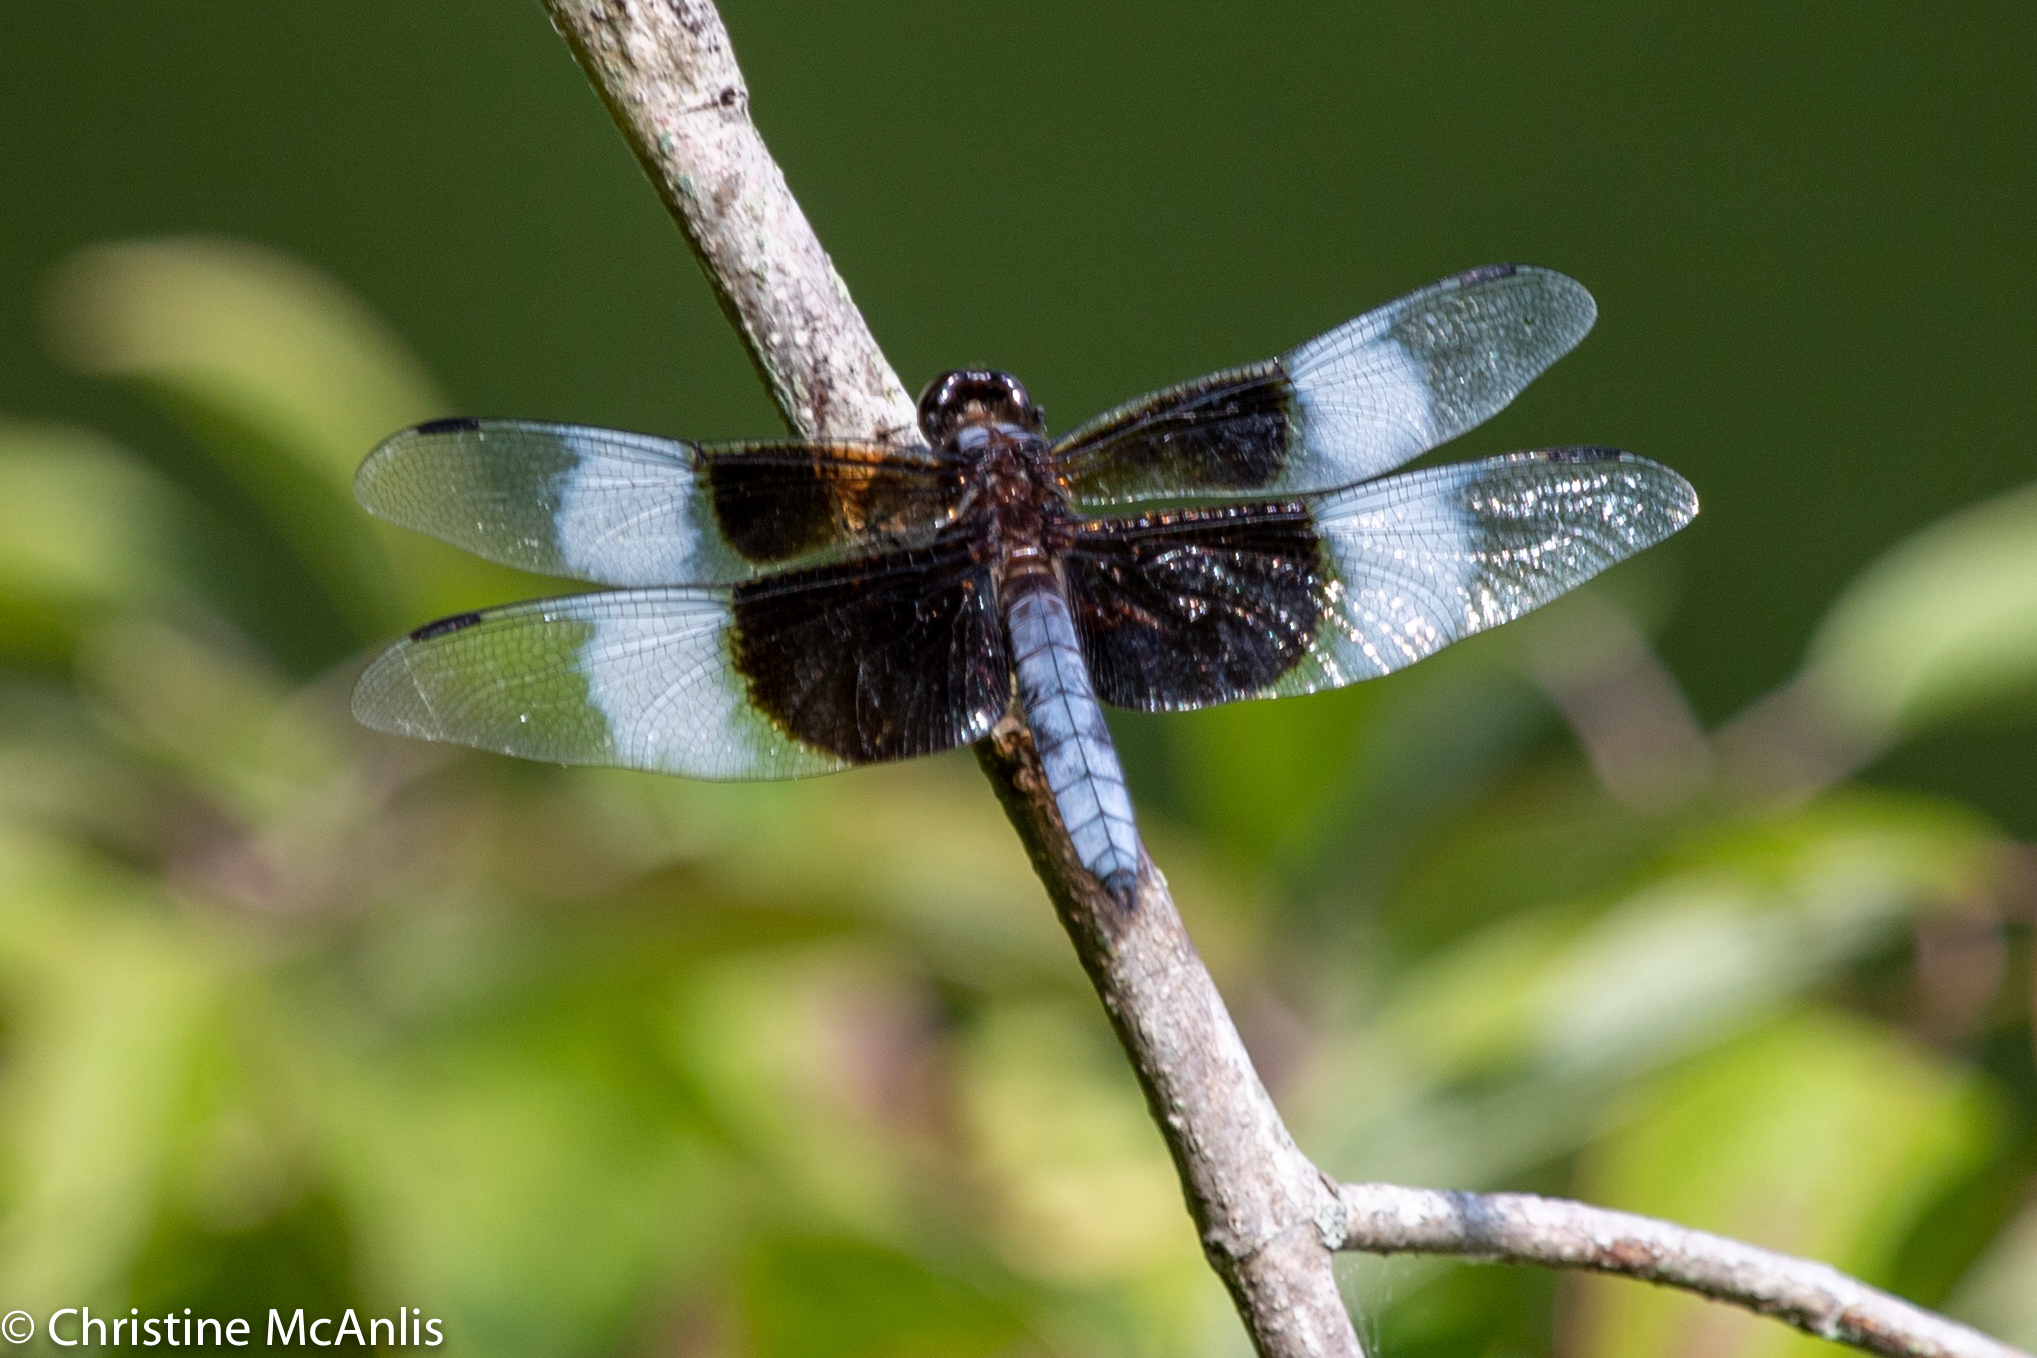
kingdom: Animalia
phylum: Arthropoda
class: Insecta
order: Odonata
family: Libellulidae
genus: Libellula
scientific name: Libellula luctuosa
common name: Widow skimmer
